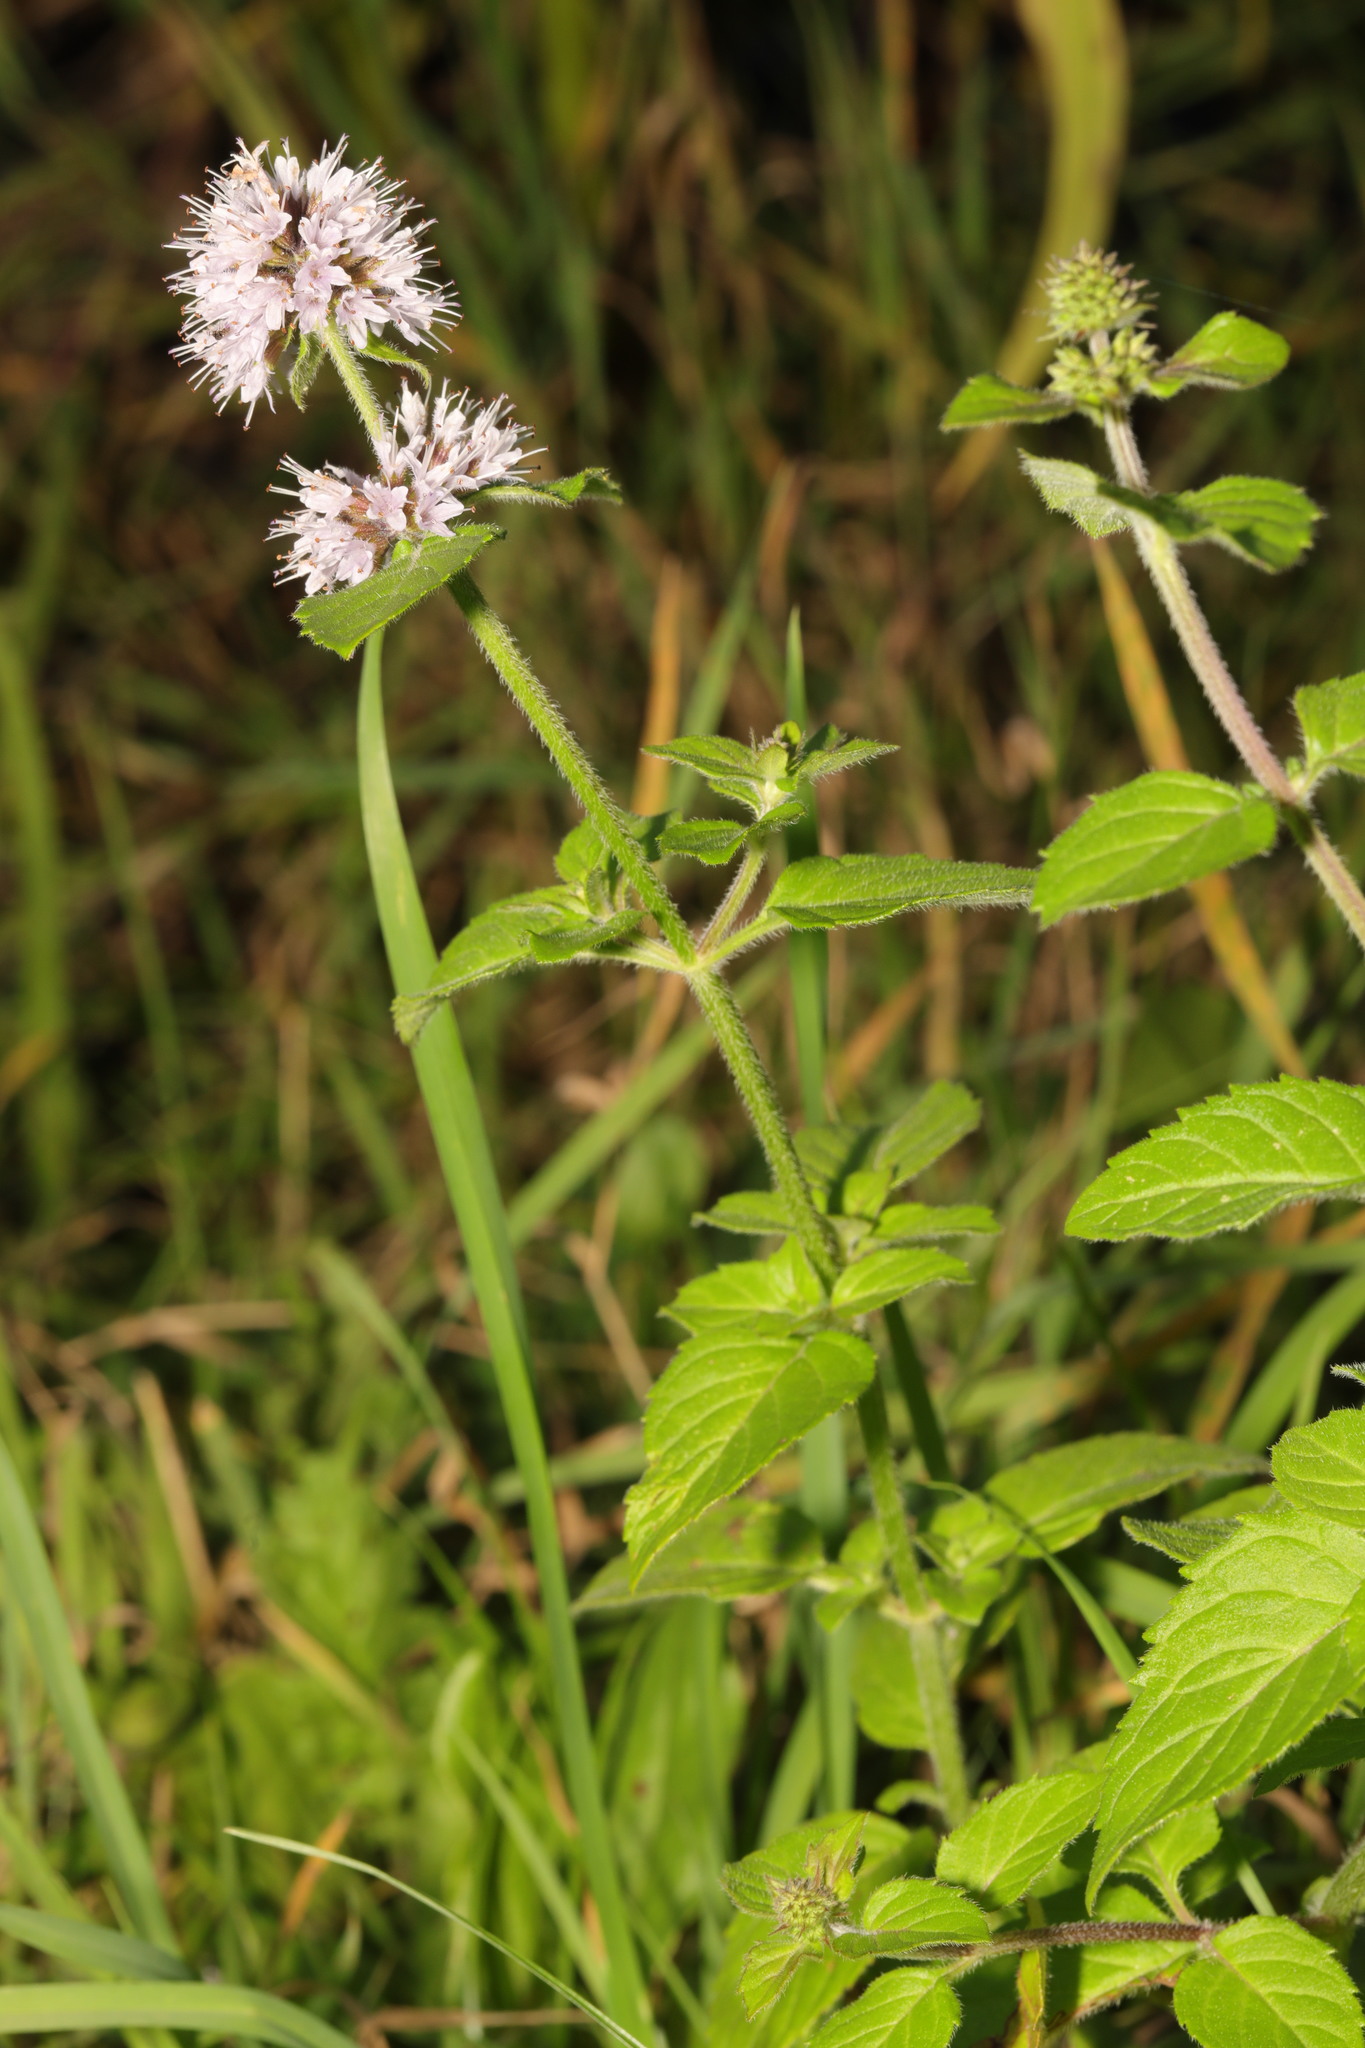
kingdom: Plantae
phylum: Tracheophyta
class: Magnoliopsida
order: Lamiales
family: Lamiaceae
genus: Mentha
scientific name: Mentha aquatica
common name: Water mint
